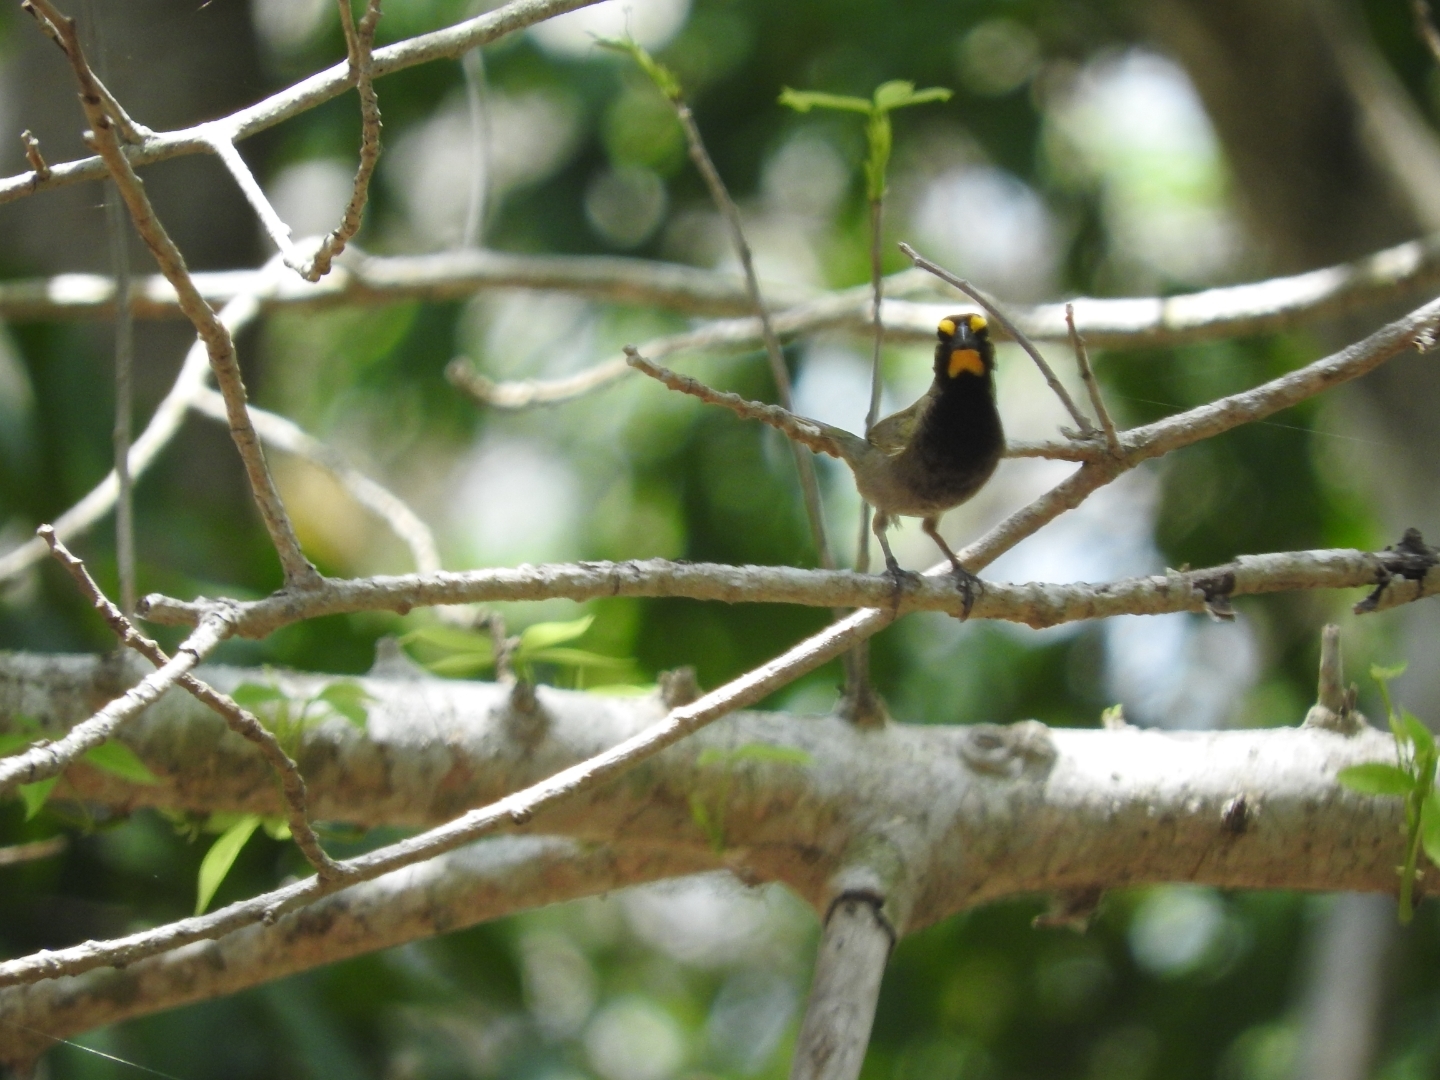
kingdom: Animalia
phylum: Chordata
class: Aves
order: Passeriformes
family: Thraupidae
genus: Tiaris
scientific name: Tiaris olivaceus
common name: Yellow-faced grassquit
